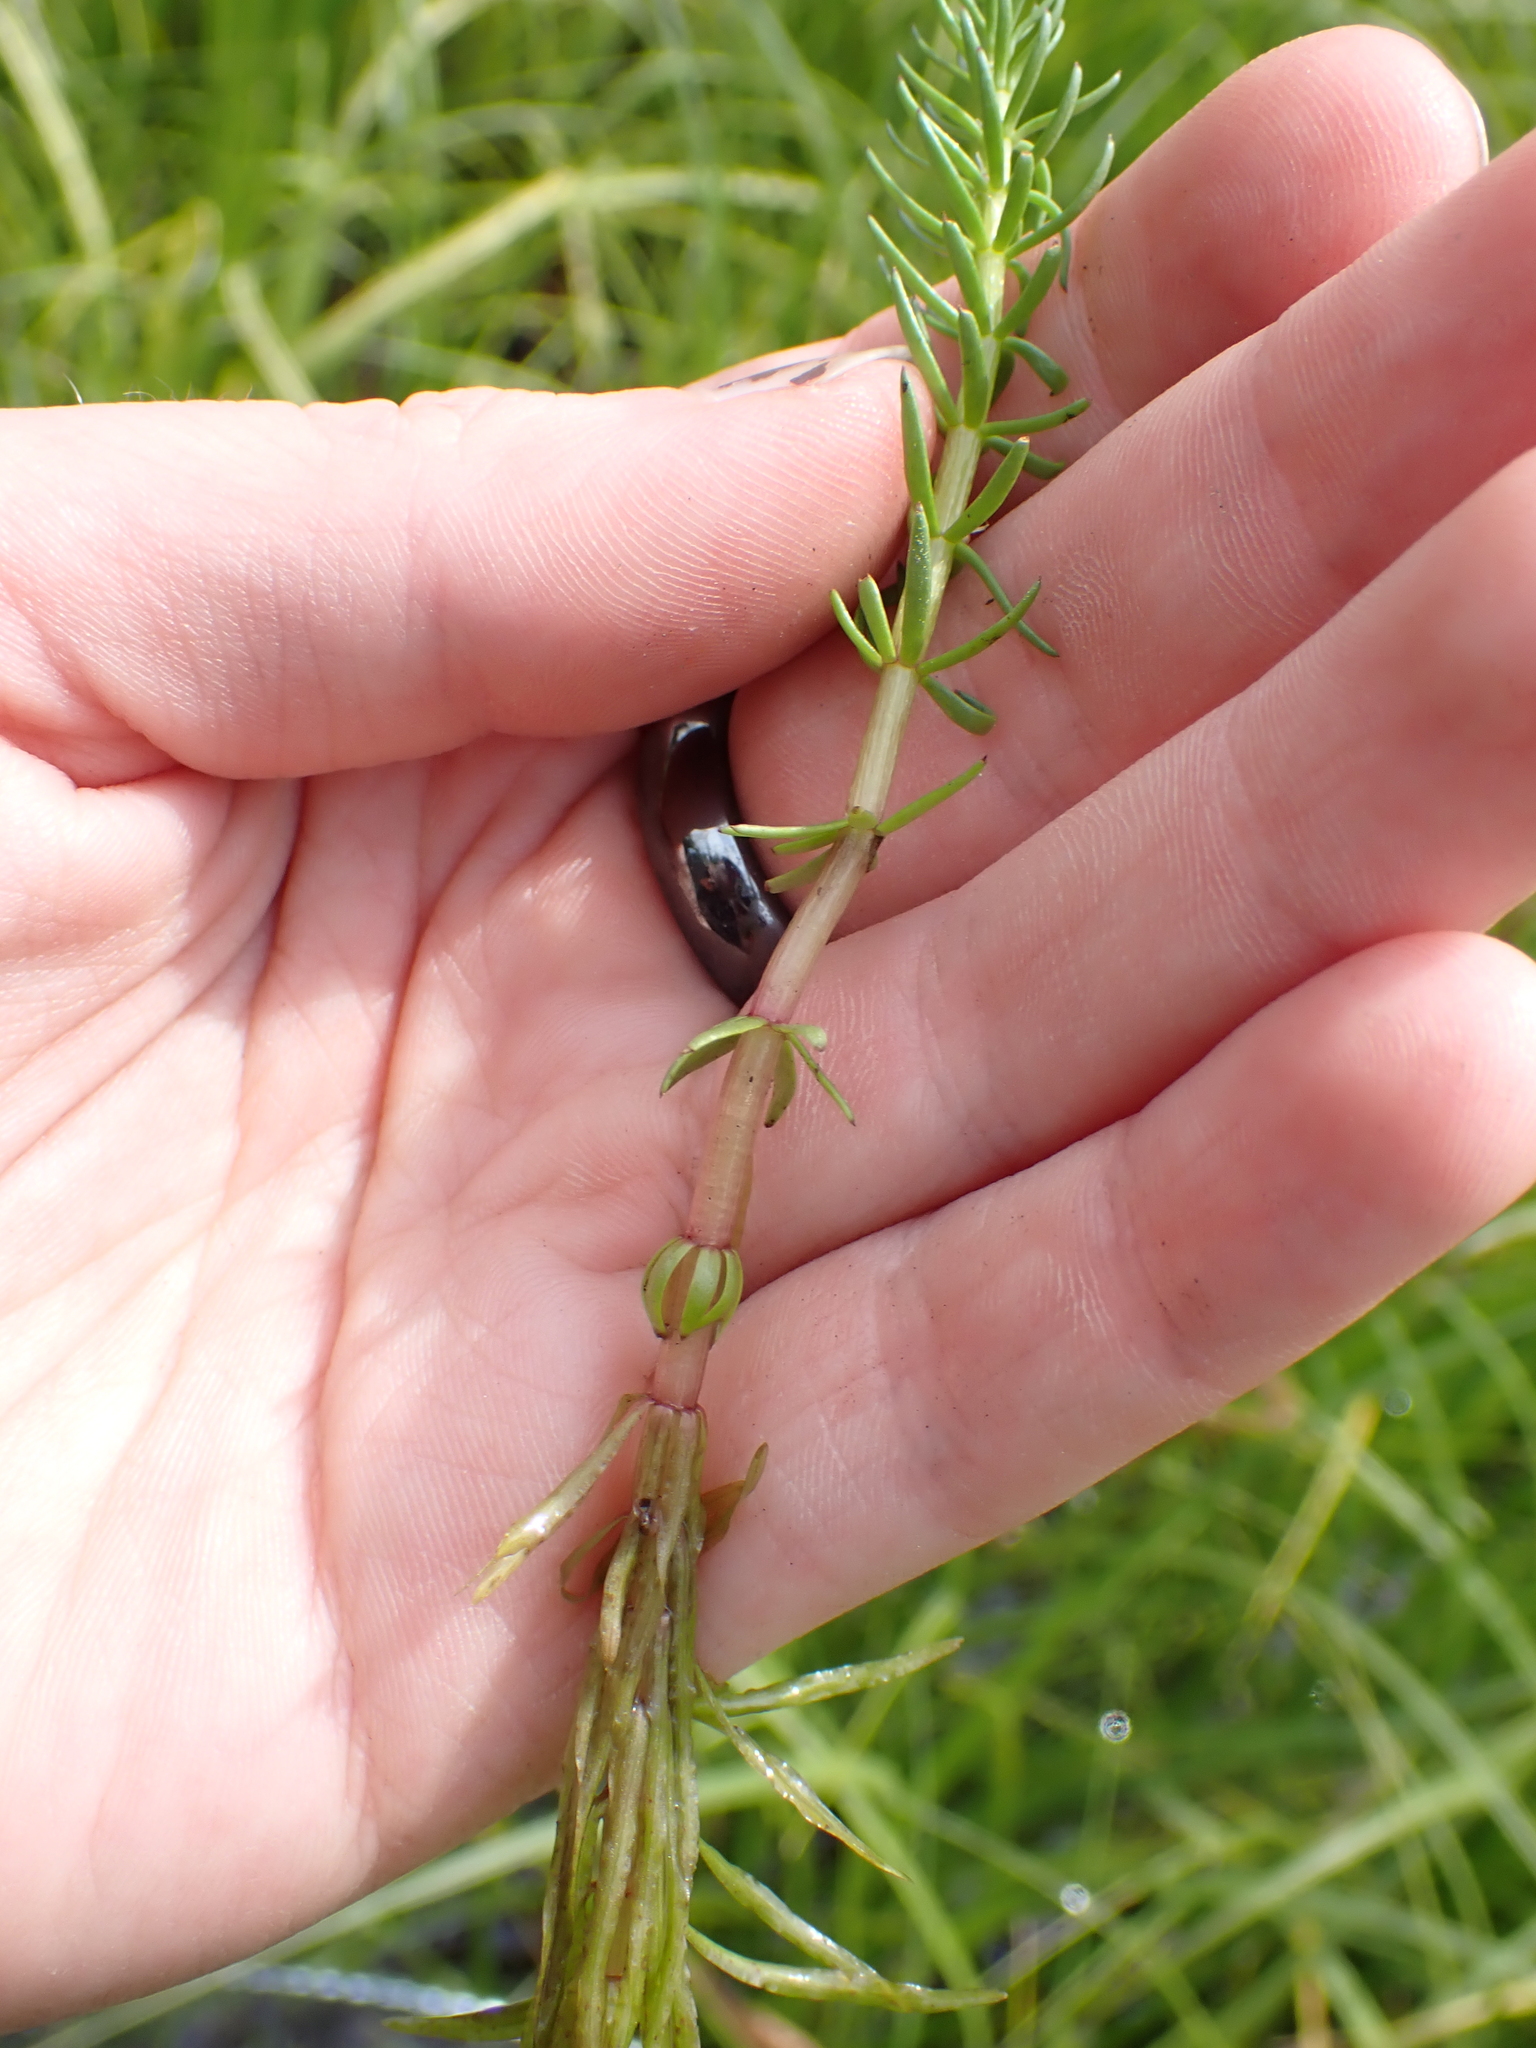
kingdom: Plantae
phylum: Tracheophyta
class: Magnoliopsida
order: Lamiales
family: Plantaginaceae
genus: Hippuris
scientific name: Hippuris vulgaris
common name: Mare's-tail
